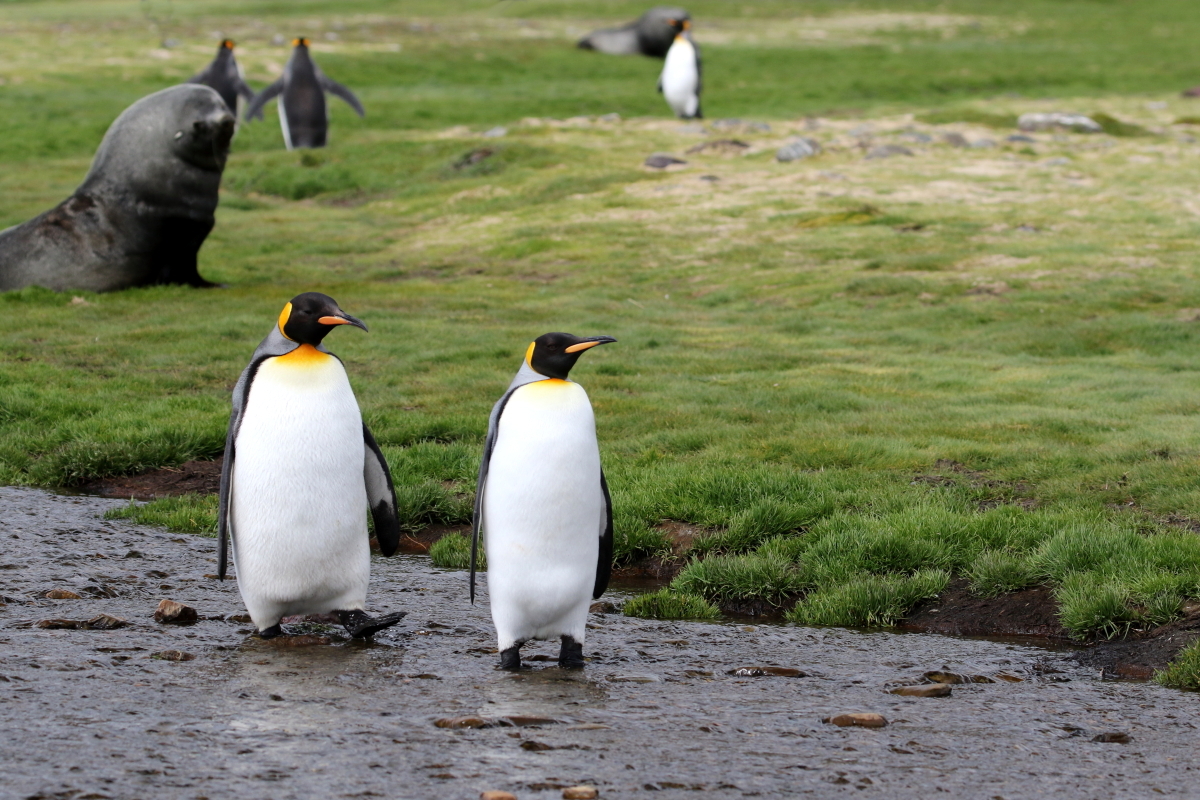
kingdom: Animalia
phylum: Chordata
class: Aves
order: Sphenisciformes
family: Spheniscidae
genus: Aptenodytes
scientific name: Aptenodytes patagonicus
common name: King penguin
